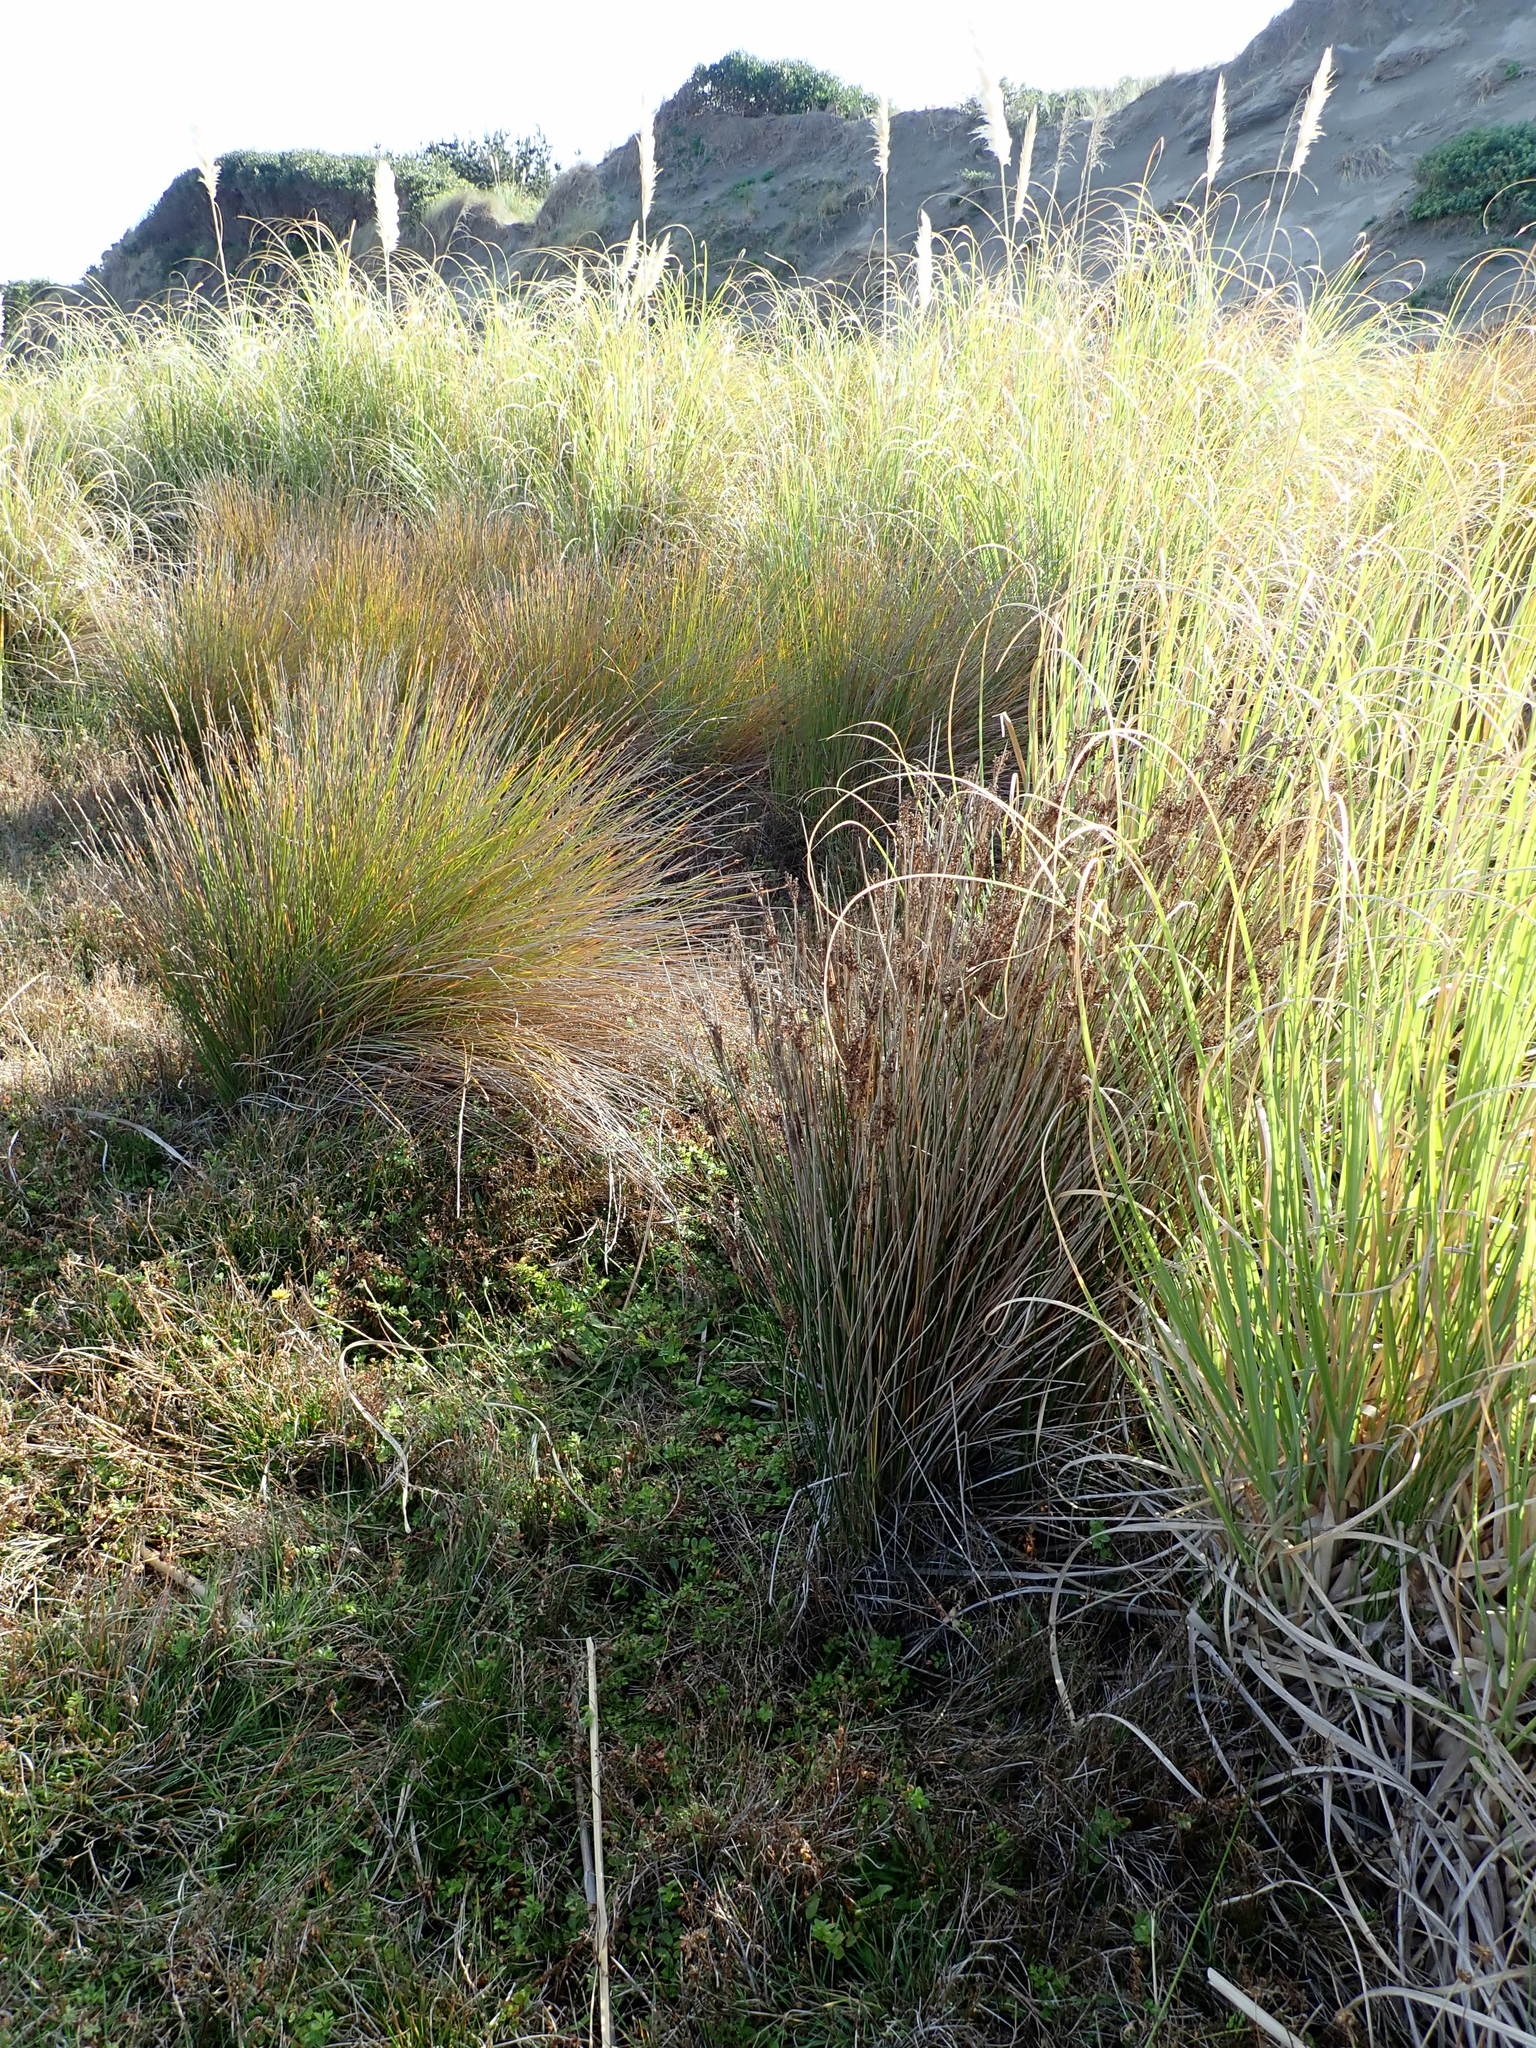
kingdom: Plantae
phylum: Tracheophyta
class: Liliopsida
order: Poales
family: Juncaceae
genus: Juncus
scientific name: Juncus kraussii
